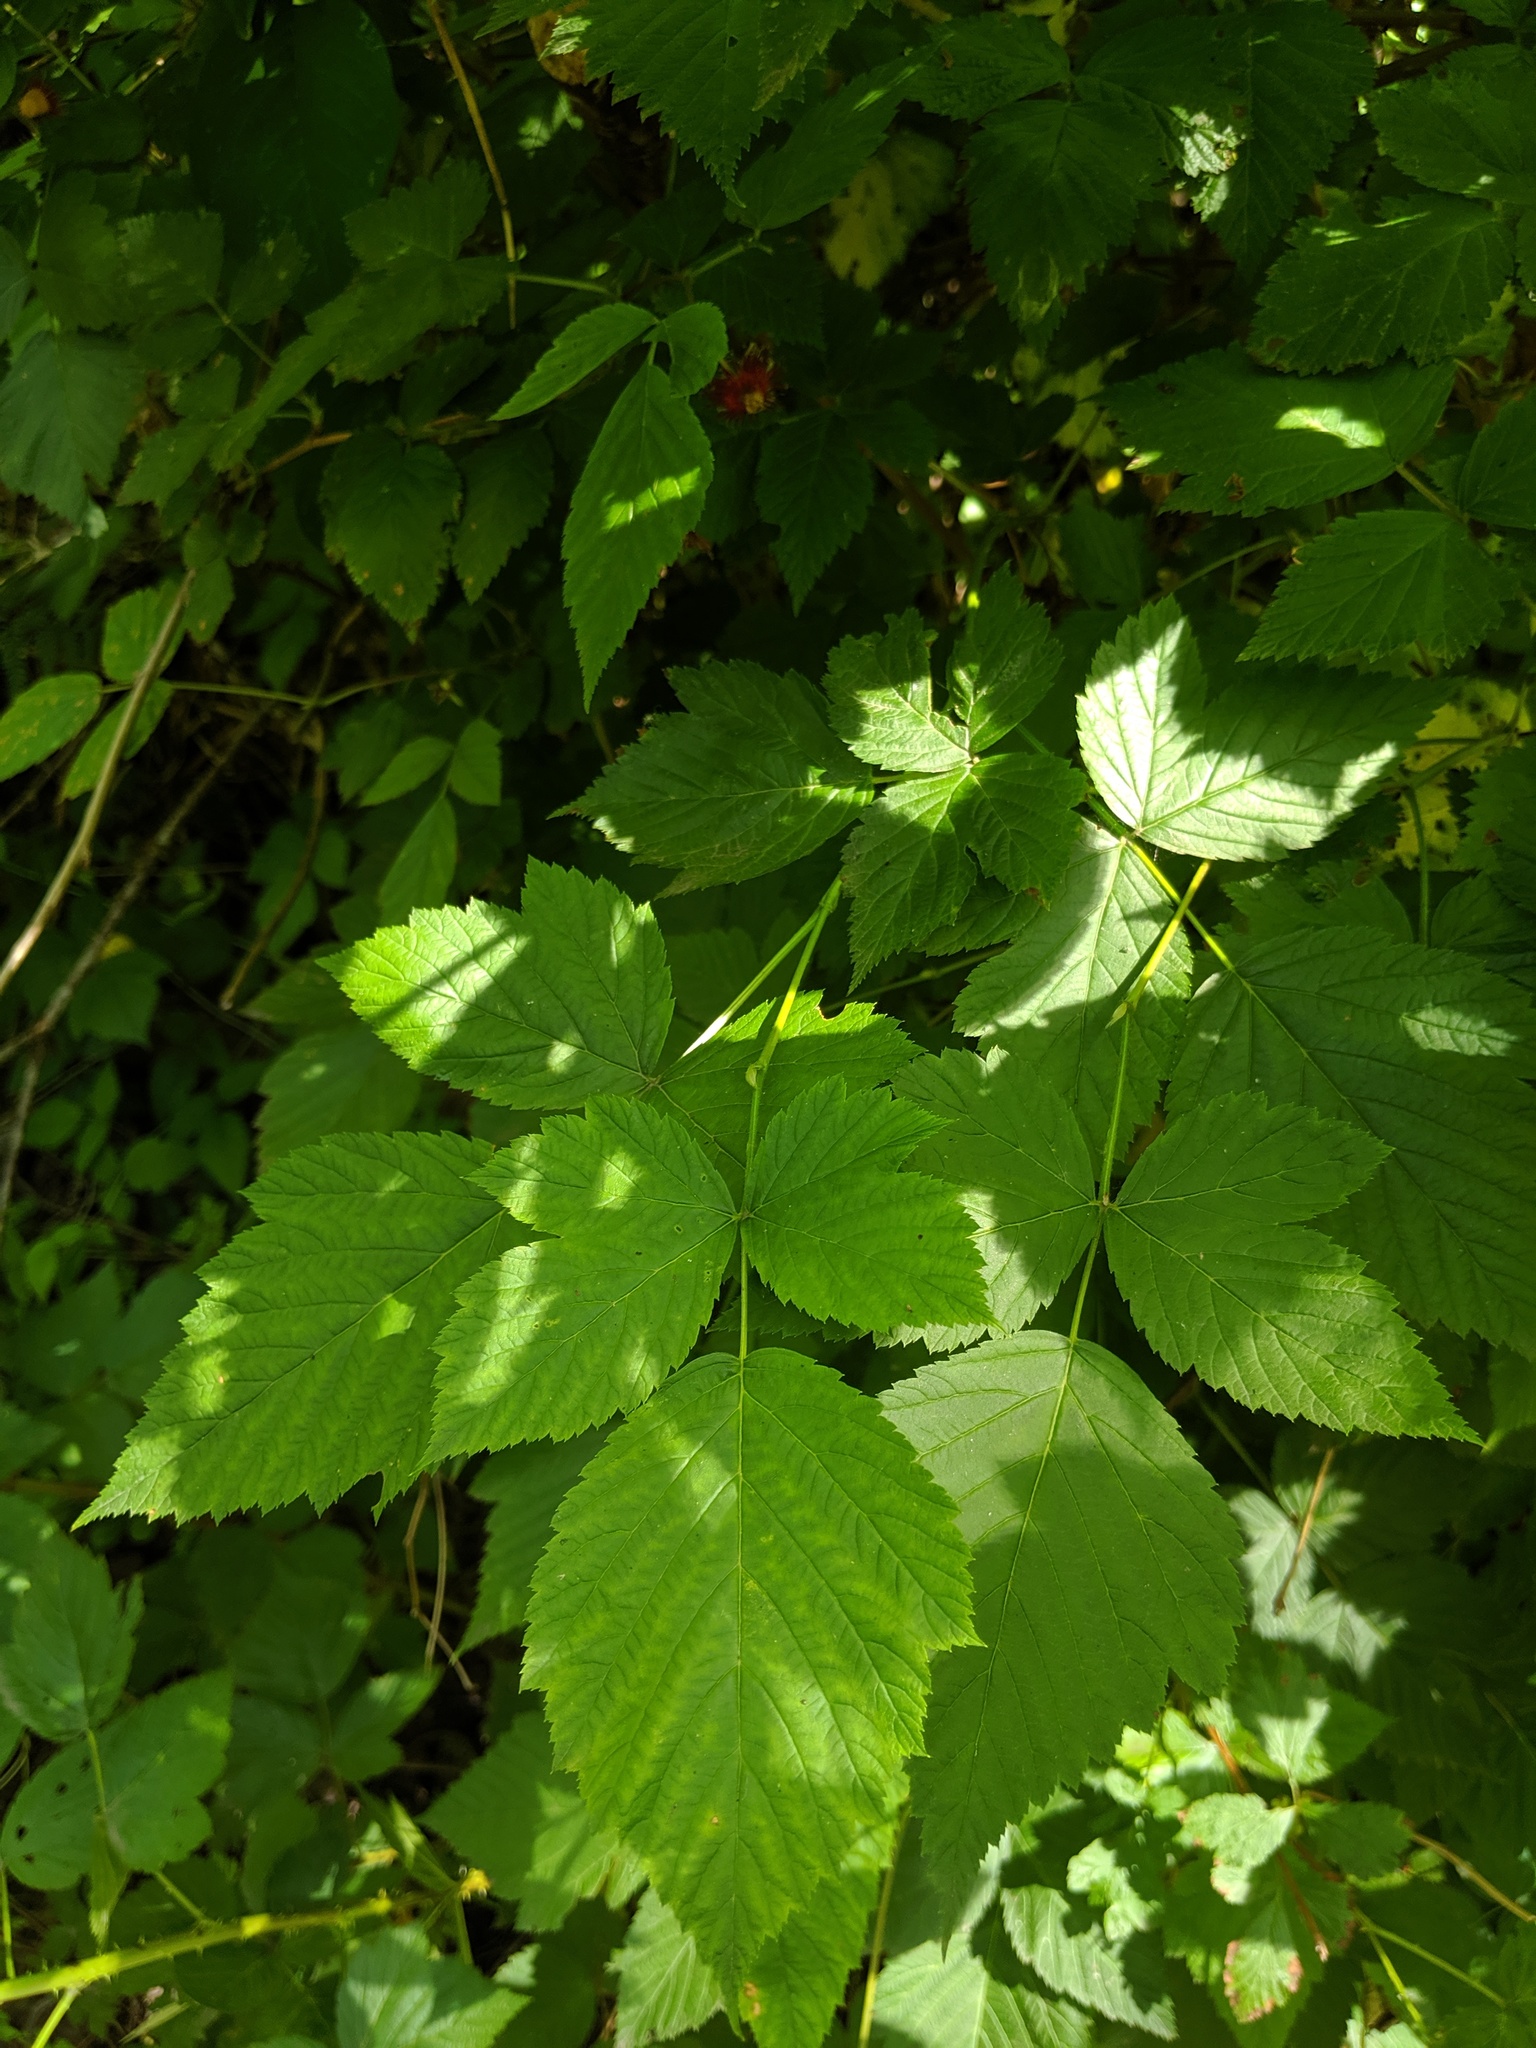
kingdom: Plantae
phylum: Tracheophyta
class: Magnoliopsida
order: Rosales
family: Rosaceae
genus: Rubus
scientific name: Rubus spectabilis
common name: Salmonberry
